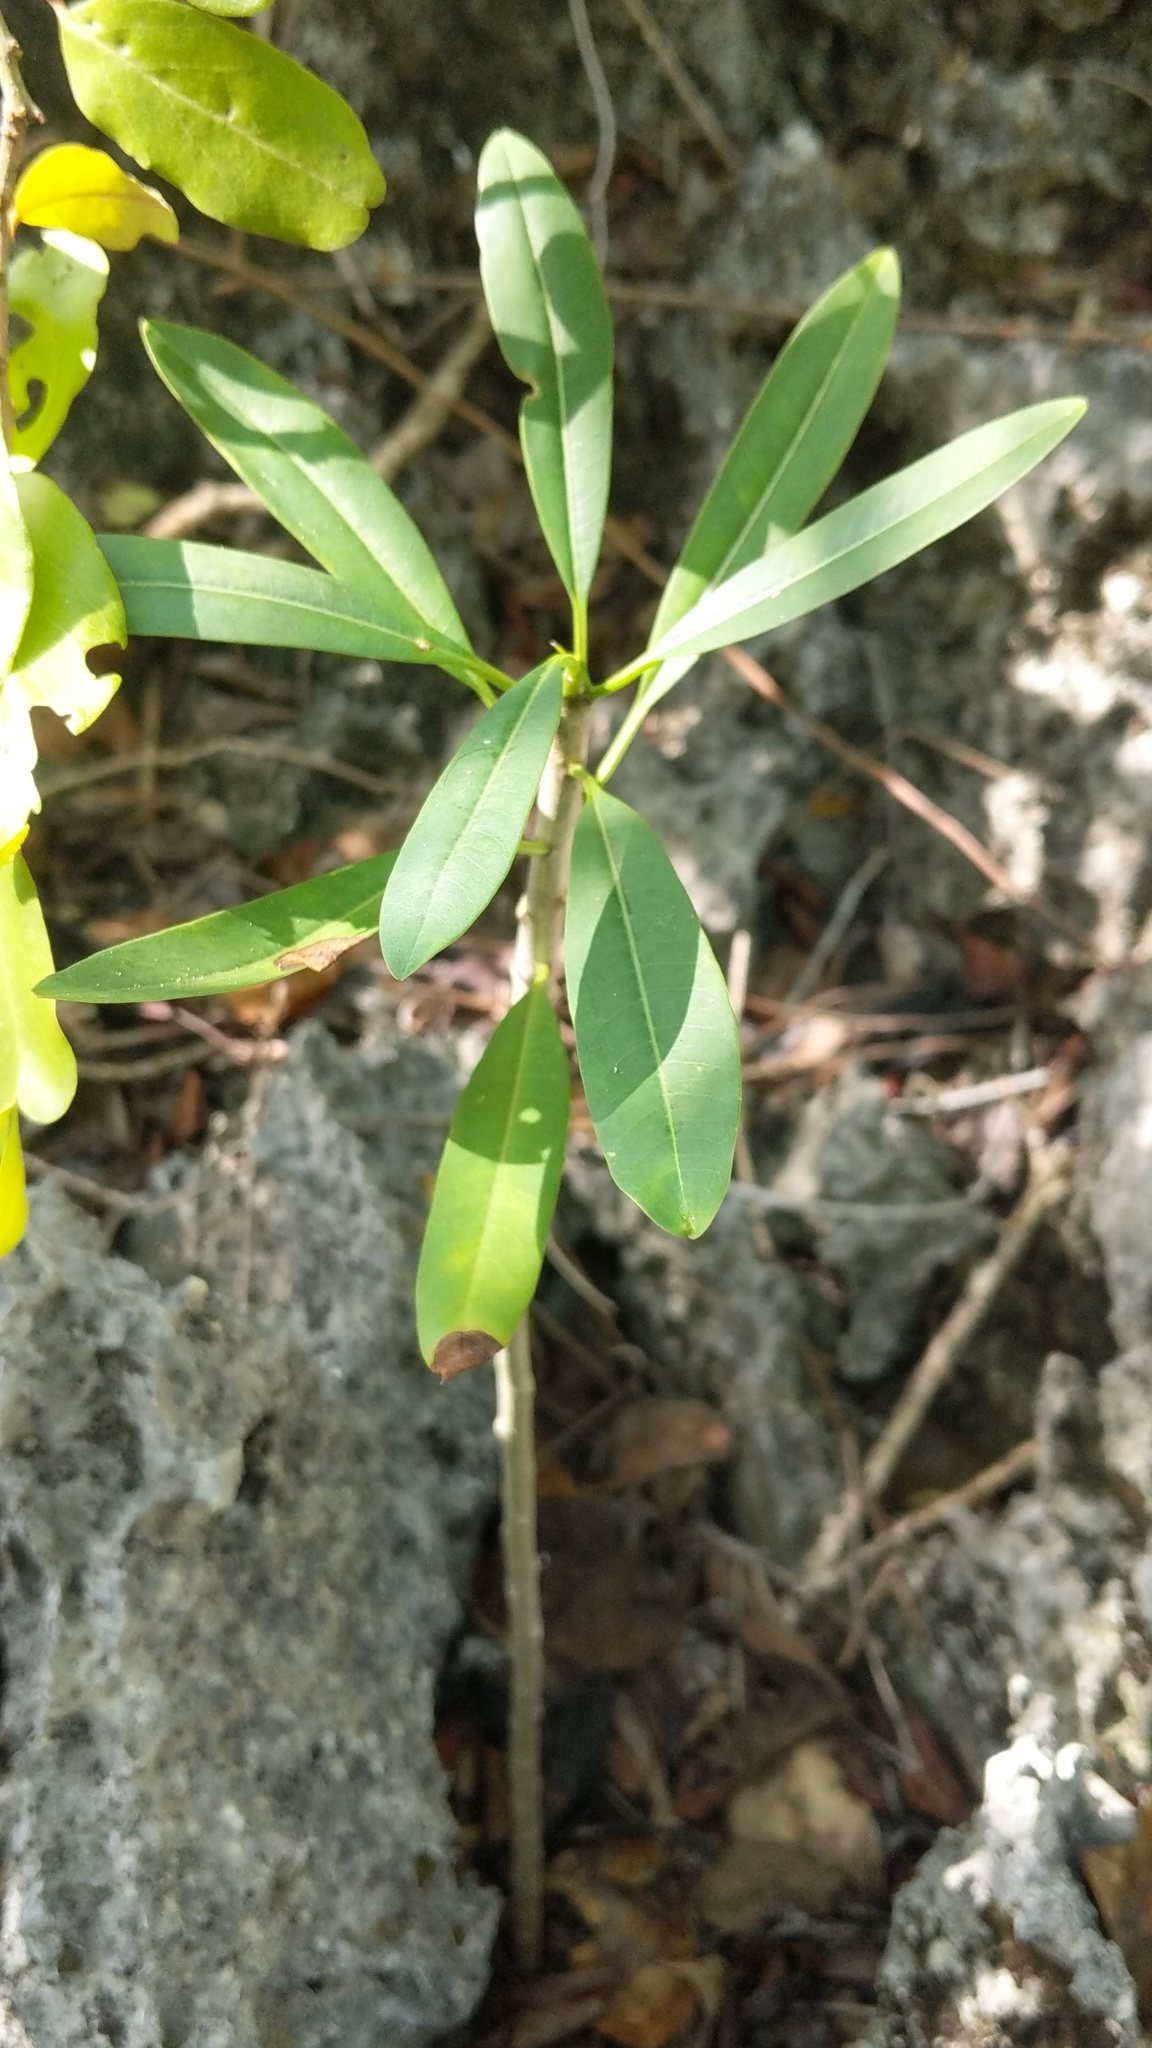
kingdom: Plantae
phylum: Tracheophyta
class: Magnoliopsida
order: Gentianales
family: Apocynaceae
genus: Plumeria
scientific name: Plumeria obtusa
